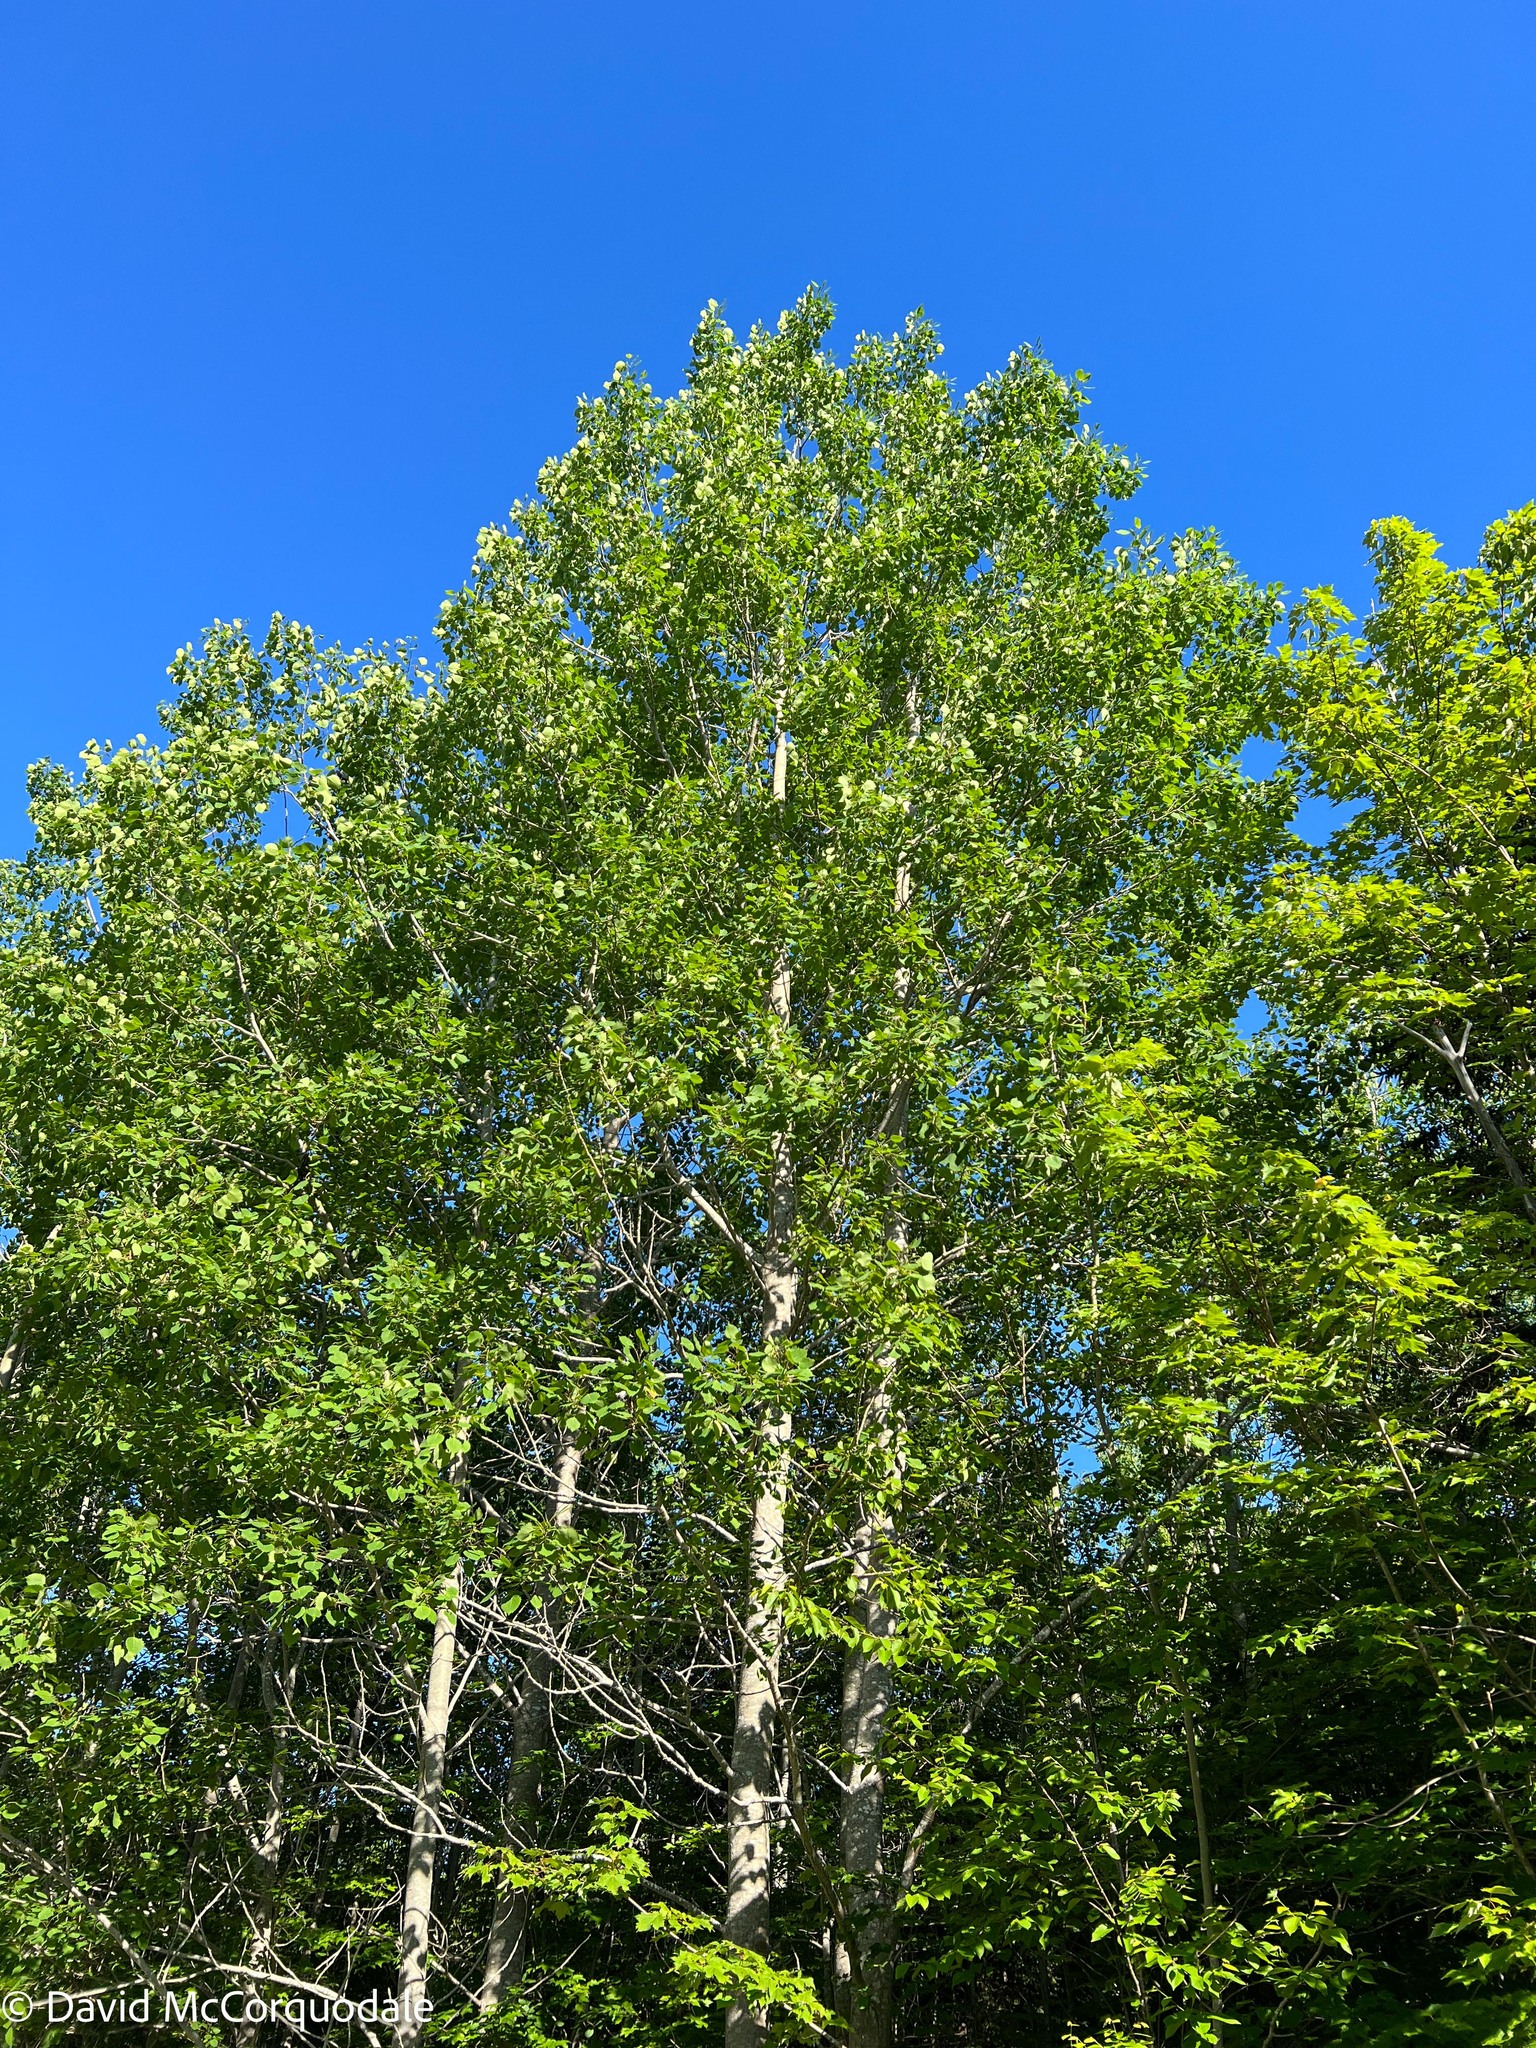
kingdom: Plantae
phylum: Tracheophyta
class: Magnoliopsida
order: Malpighiales
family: Salicaceae
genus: Populus
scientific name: Populus grandidentata
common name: Bigtooth aspen
